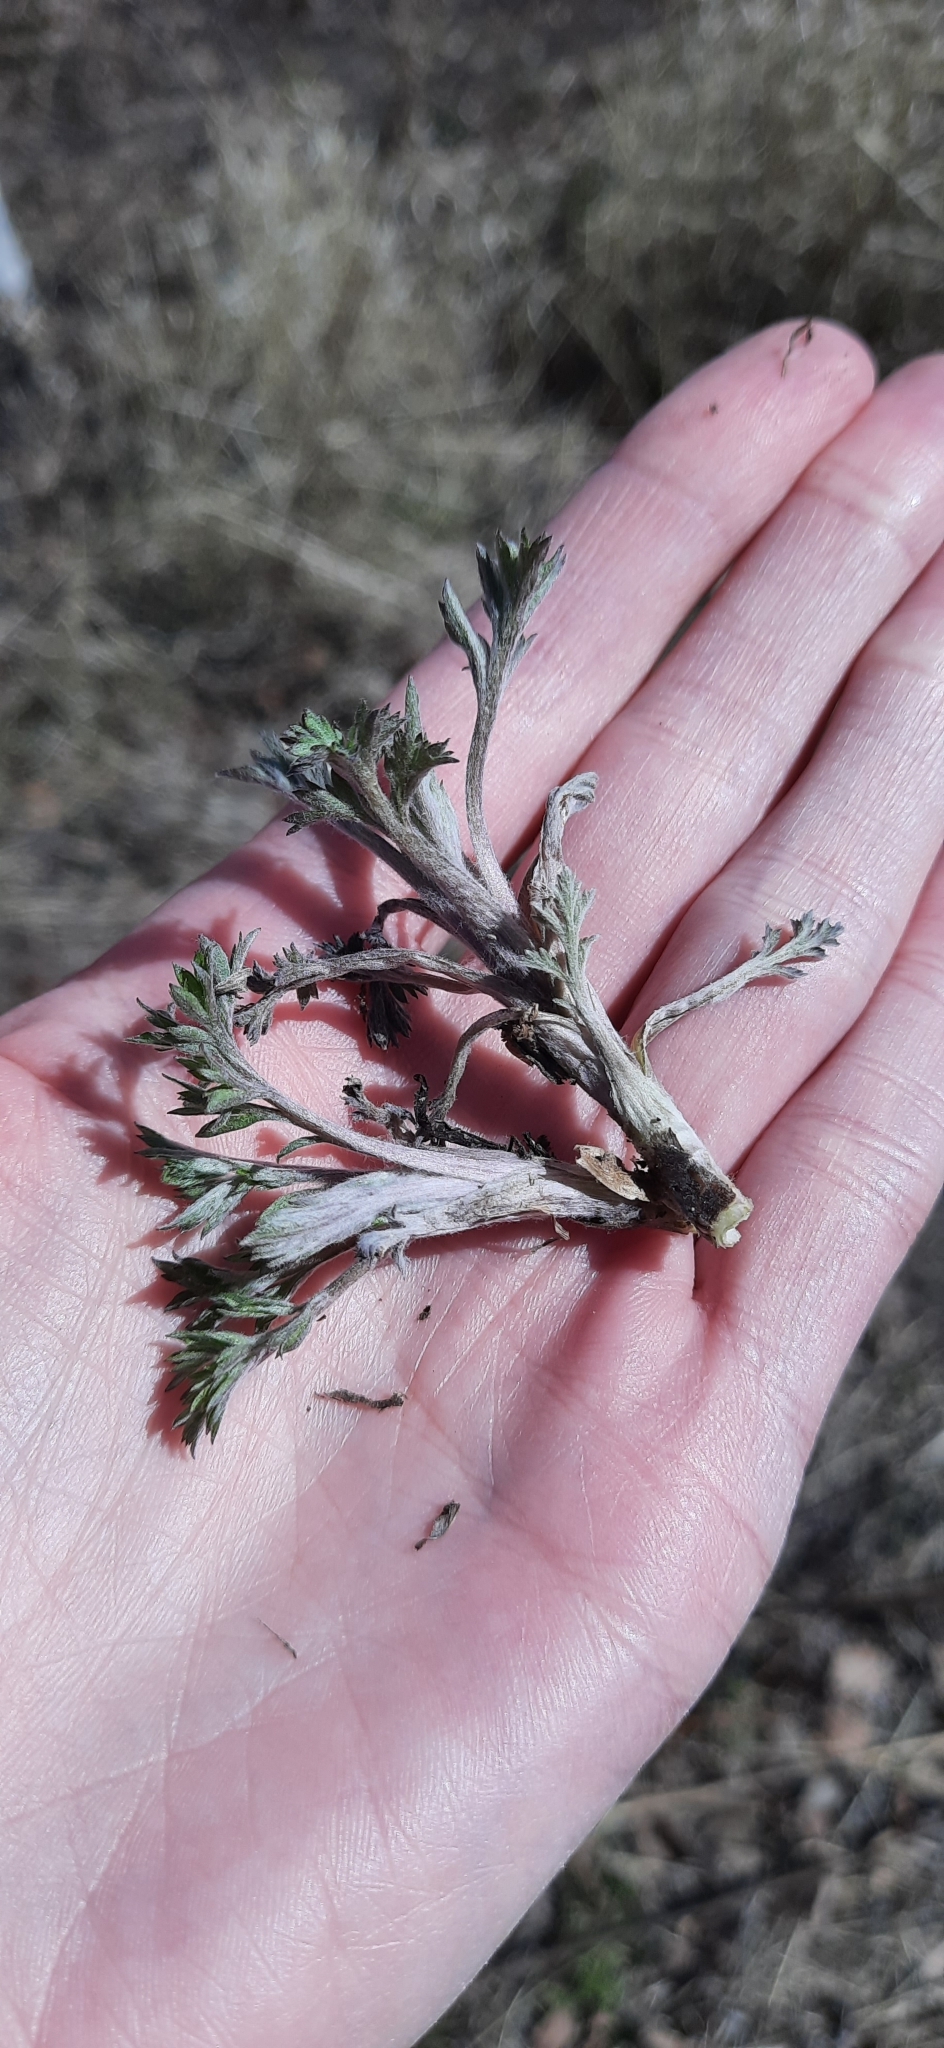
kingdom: Plantae
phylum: Tracheophyta
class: Magnoliopsida
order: Asterales
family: Asteraceae
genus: Artemisia
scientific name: Artemisia vulgaris
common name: Mugwort
